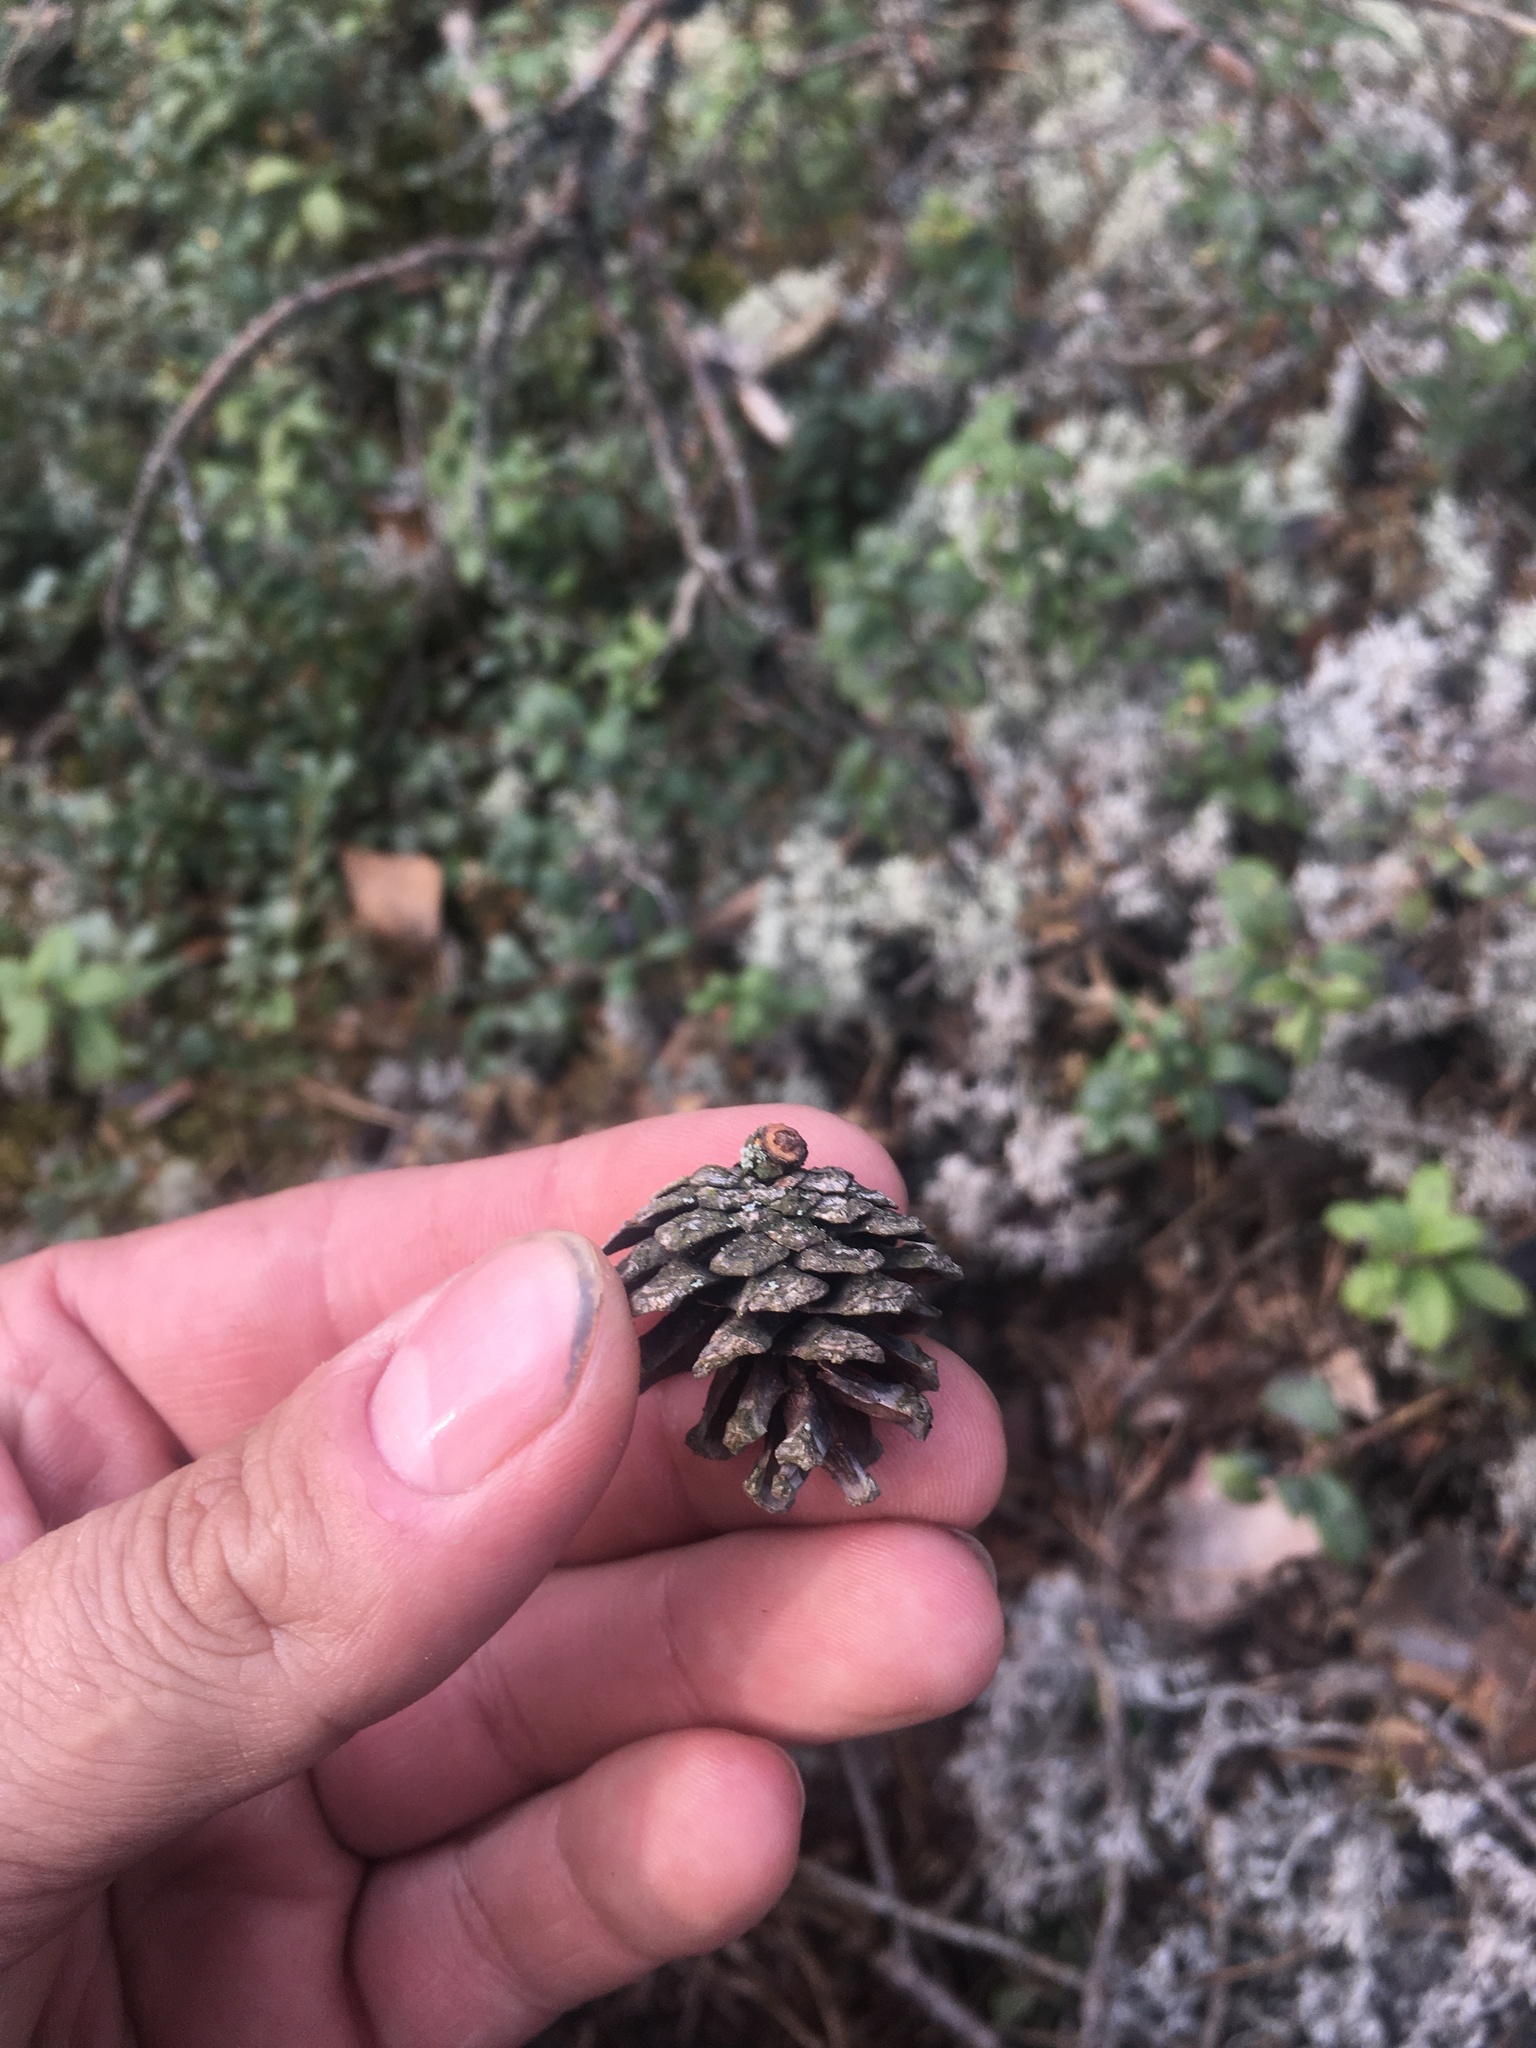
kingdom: Plantae
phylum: Tracheophyta
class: Pinopsida
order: Pinales
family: Pinaceae
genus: Pinus
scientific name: Pinus sylvestris
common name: Scots pine
